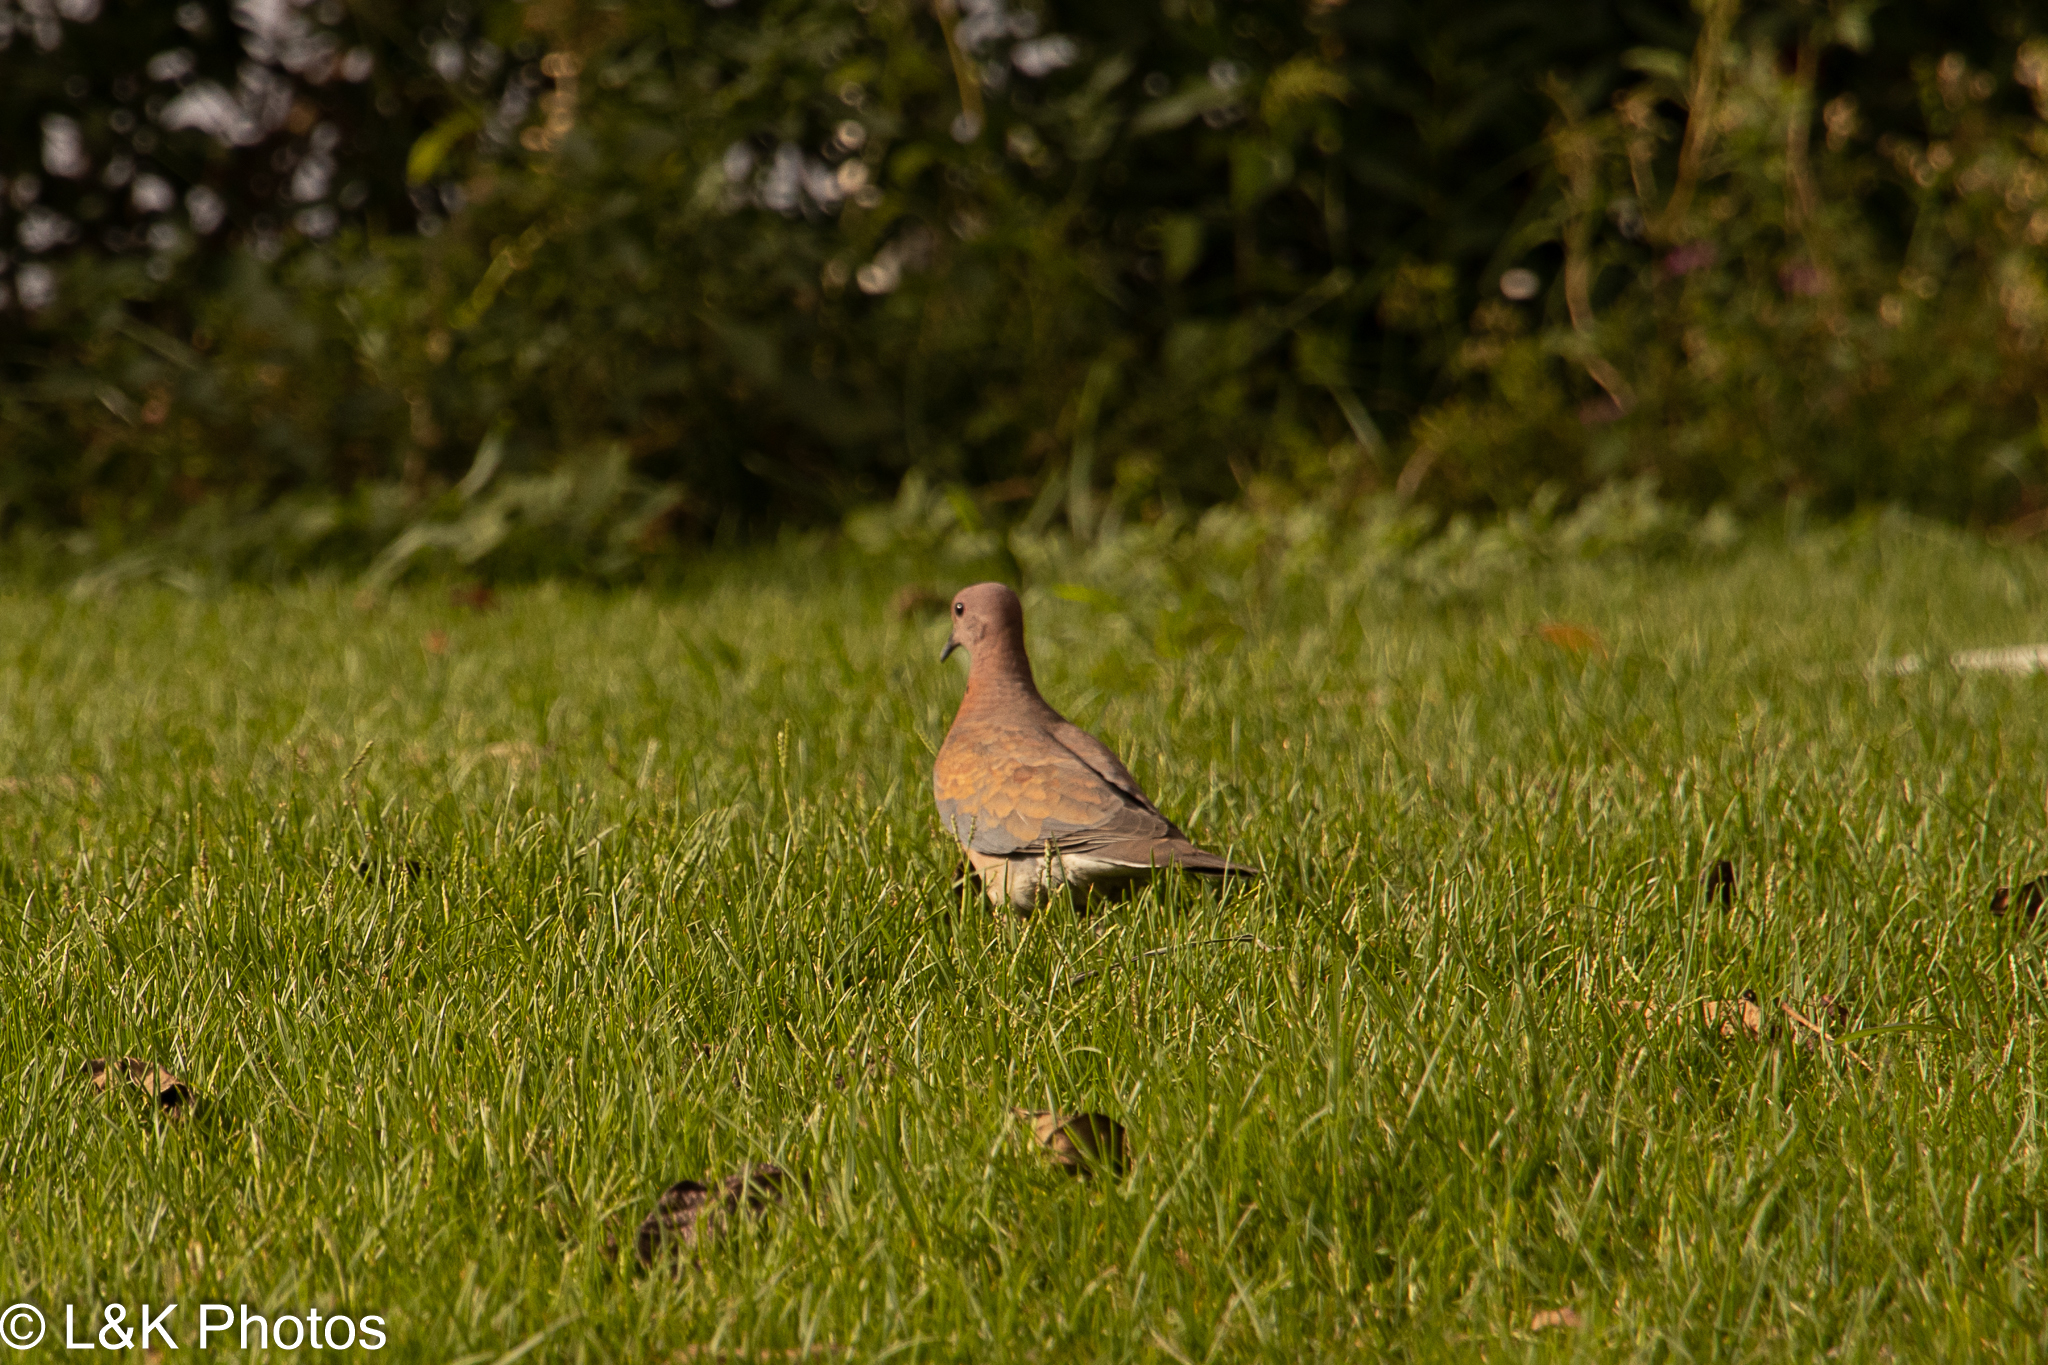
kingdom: Animalia
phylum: Chordata
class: Aves
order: Columbiformes
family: Columbidae
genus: Spilopelia
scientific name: Spilopelia senegalensis
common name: Laughing dove
